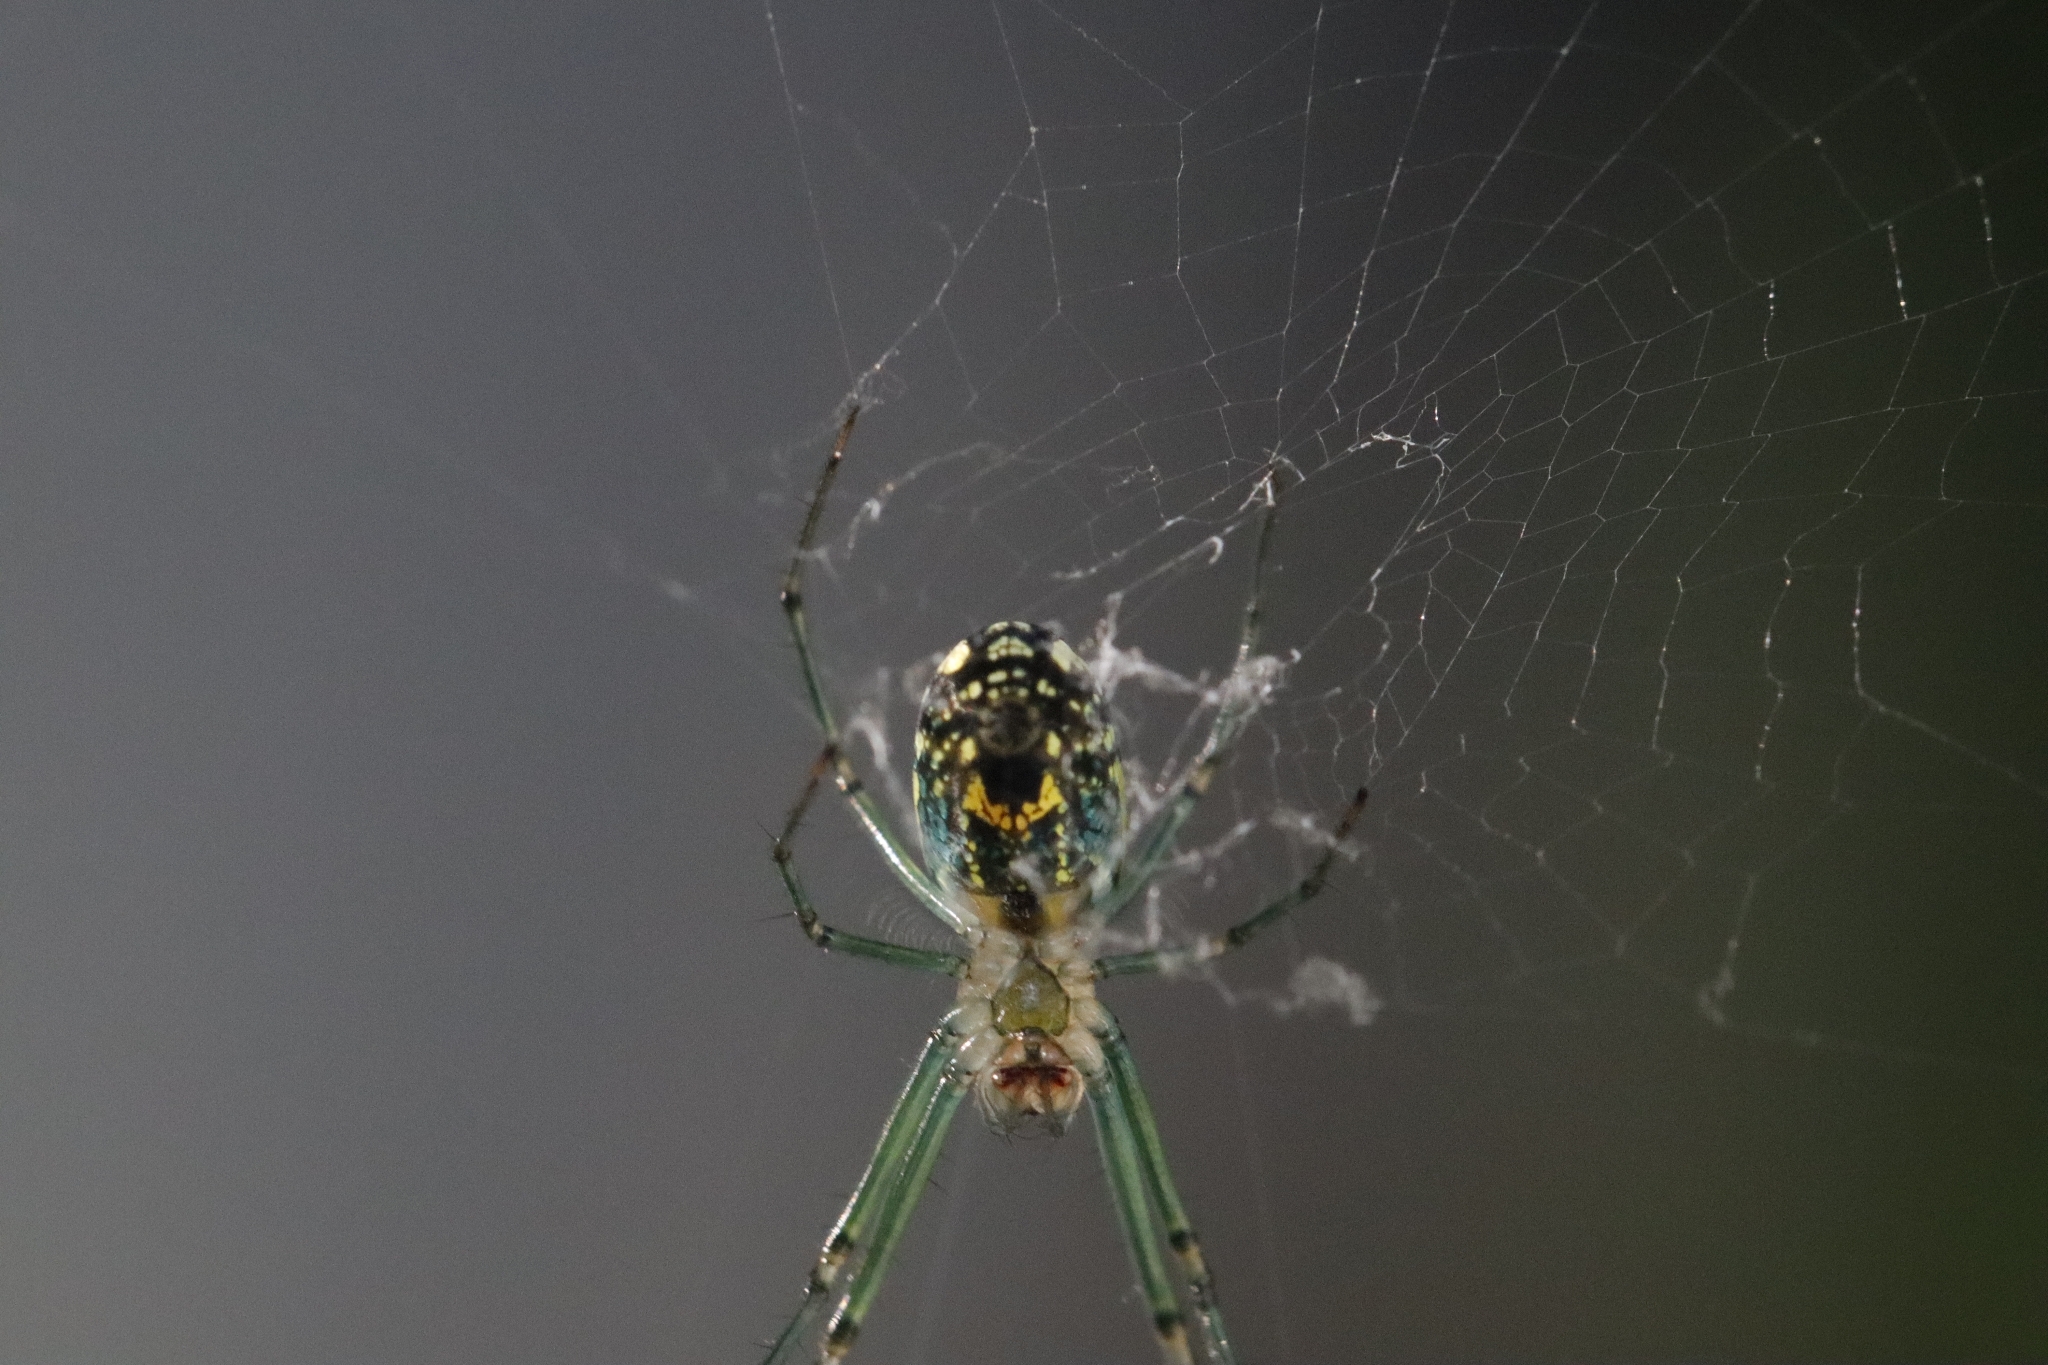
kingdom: Animalia
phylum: Arthropoda
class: Arachnida
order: Araneae
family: Tetragnathidae
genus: Leucauge
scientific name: Leucauge venusta
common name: Longjawed orb weavers
